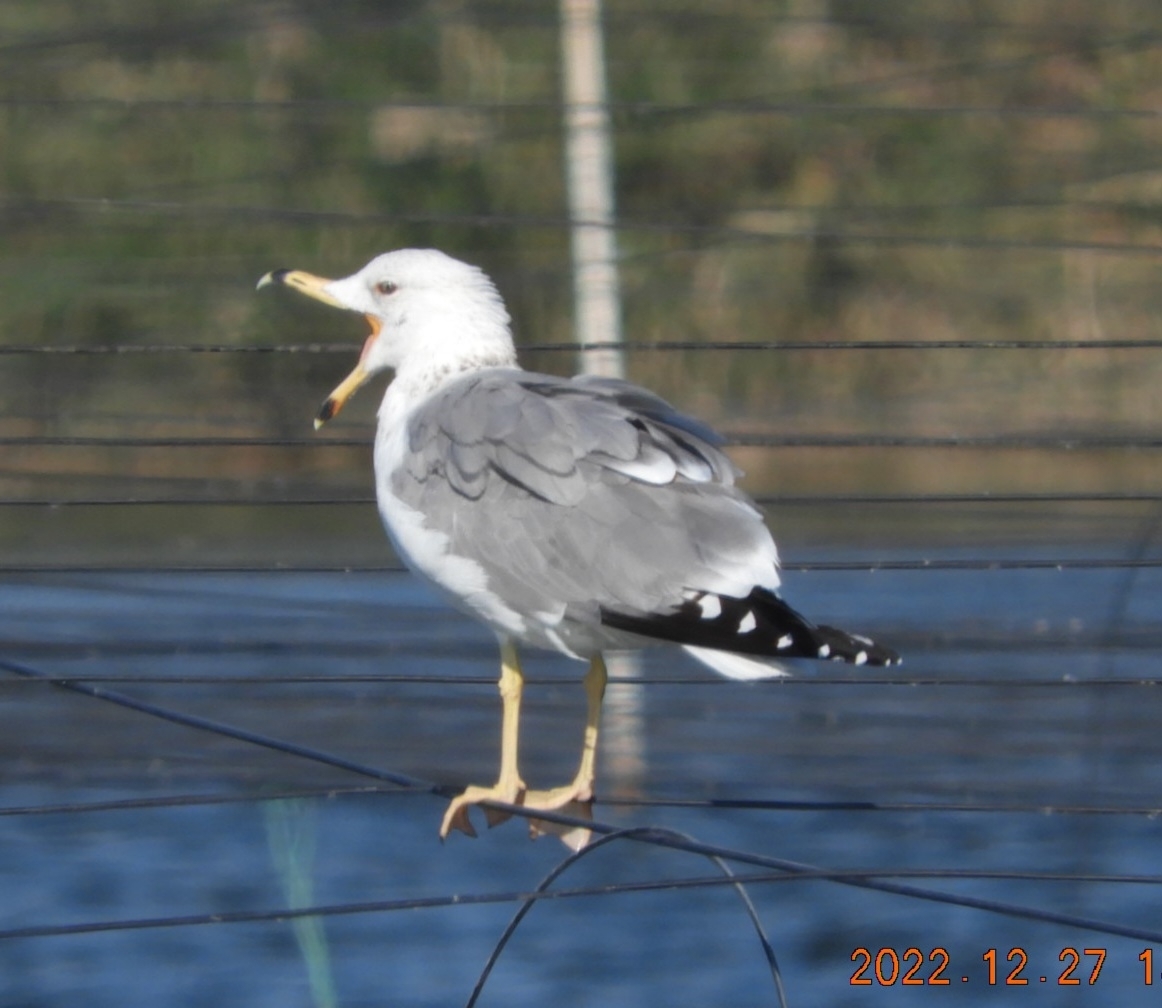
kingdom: Animalia
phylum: Chordata
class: Aves
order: Charadriiformes
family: Laridae
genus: Larus
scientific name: Larus armenicus
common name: Armenian gull
